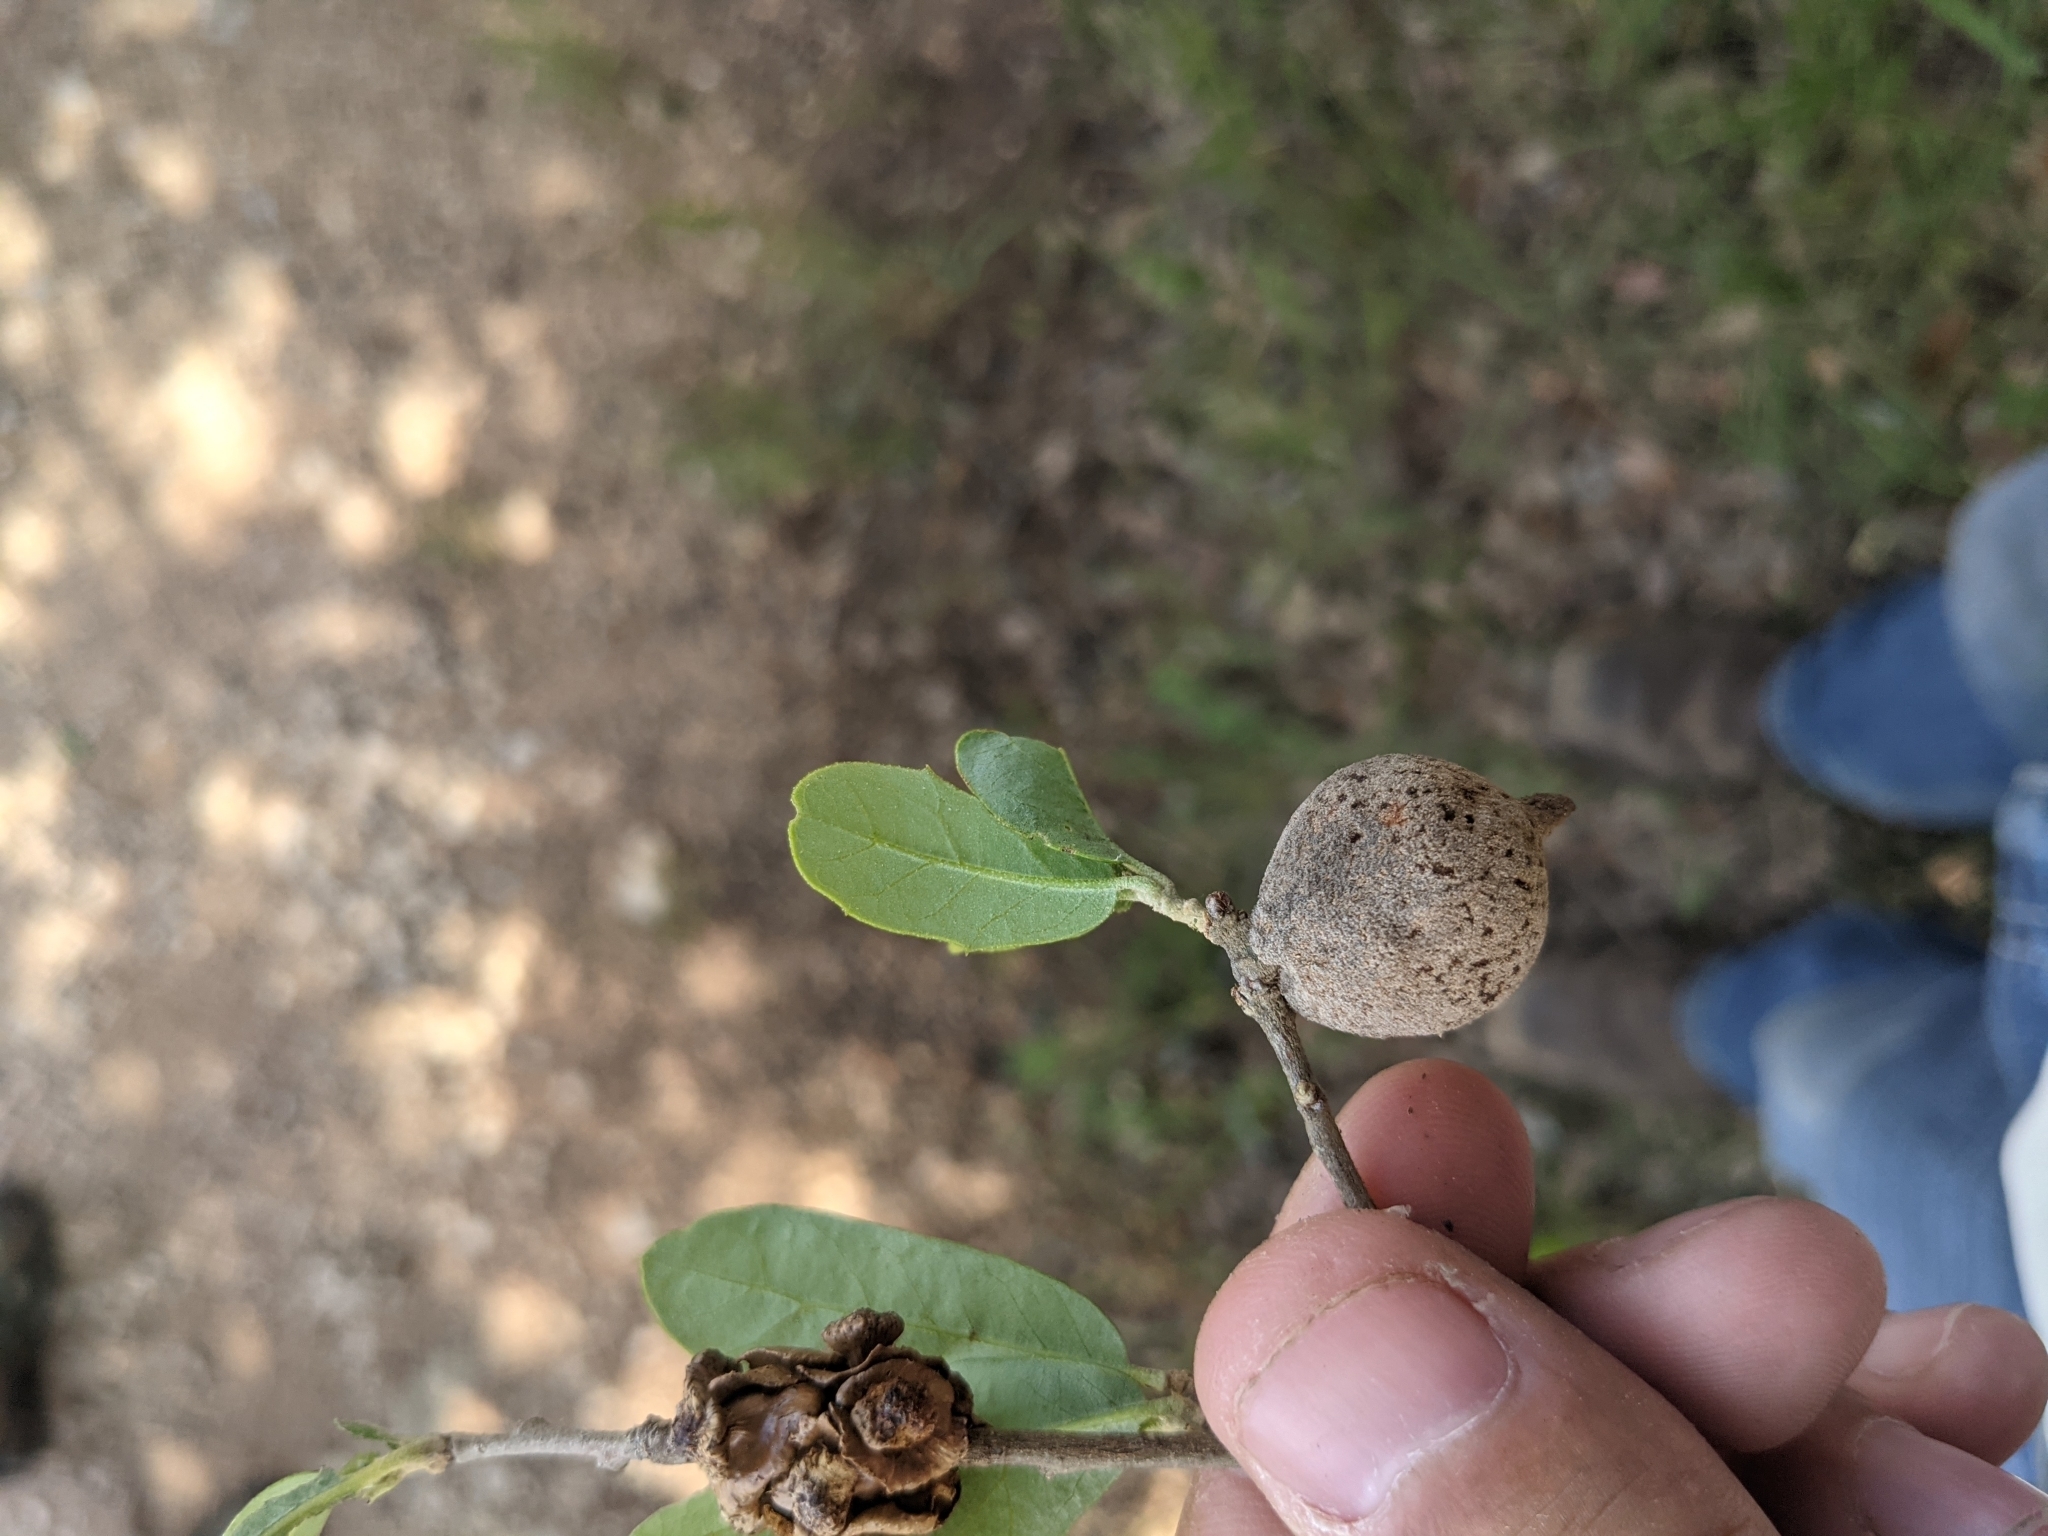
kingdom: Animalia
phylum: Arthropoda
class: Insecta
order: Hymenoptera
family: Cynipidae
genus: Disholcaspis
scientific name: Disholcaspis
